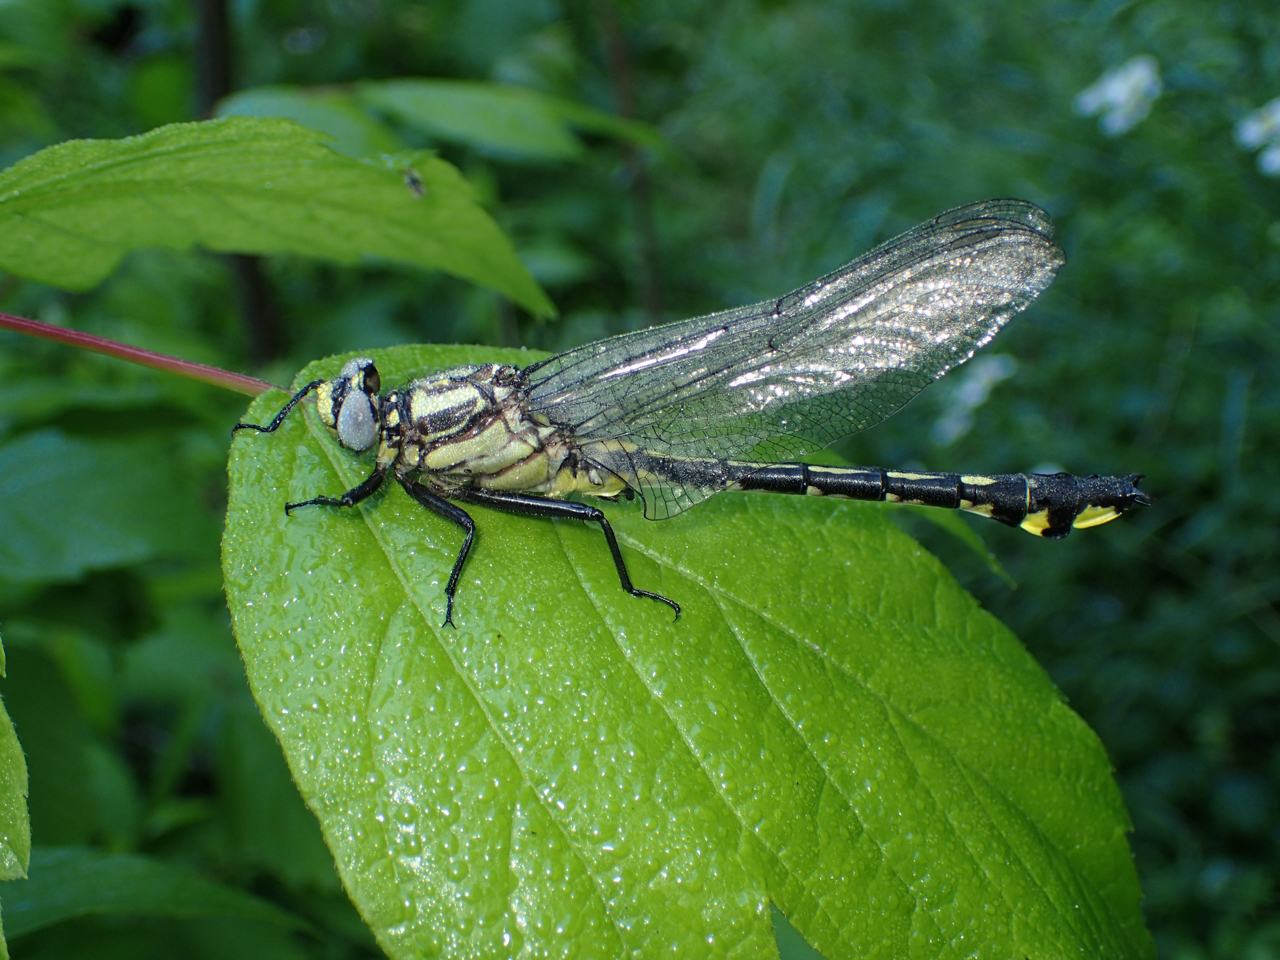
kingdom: Animalia
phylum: Arthropoda
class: Insecta
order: Odonata
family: Gomphidae
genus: Gomphurus
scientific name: Gomphurus lineatifrons
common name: Splendid clubtail
